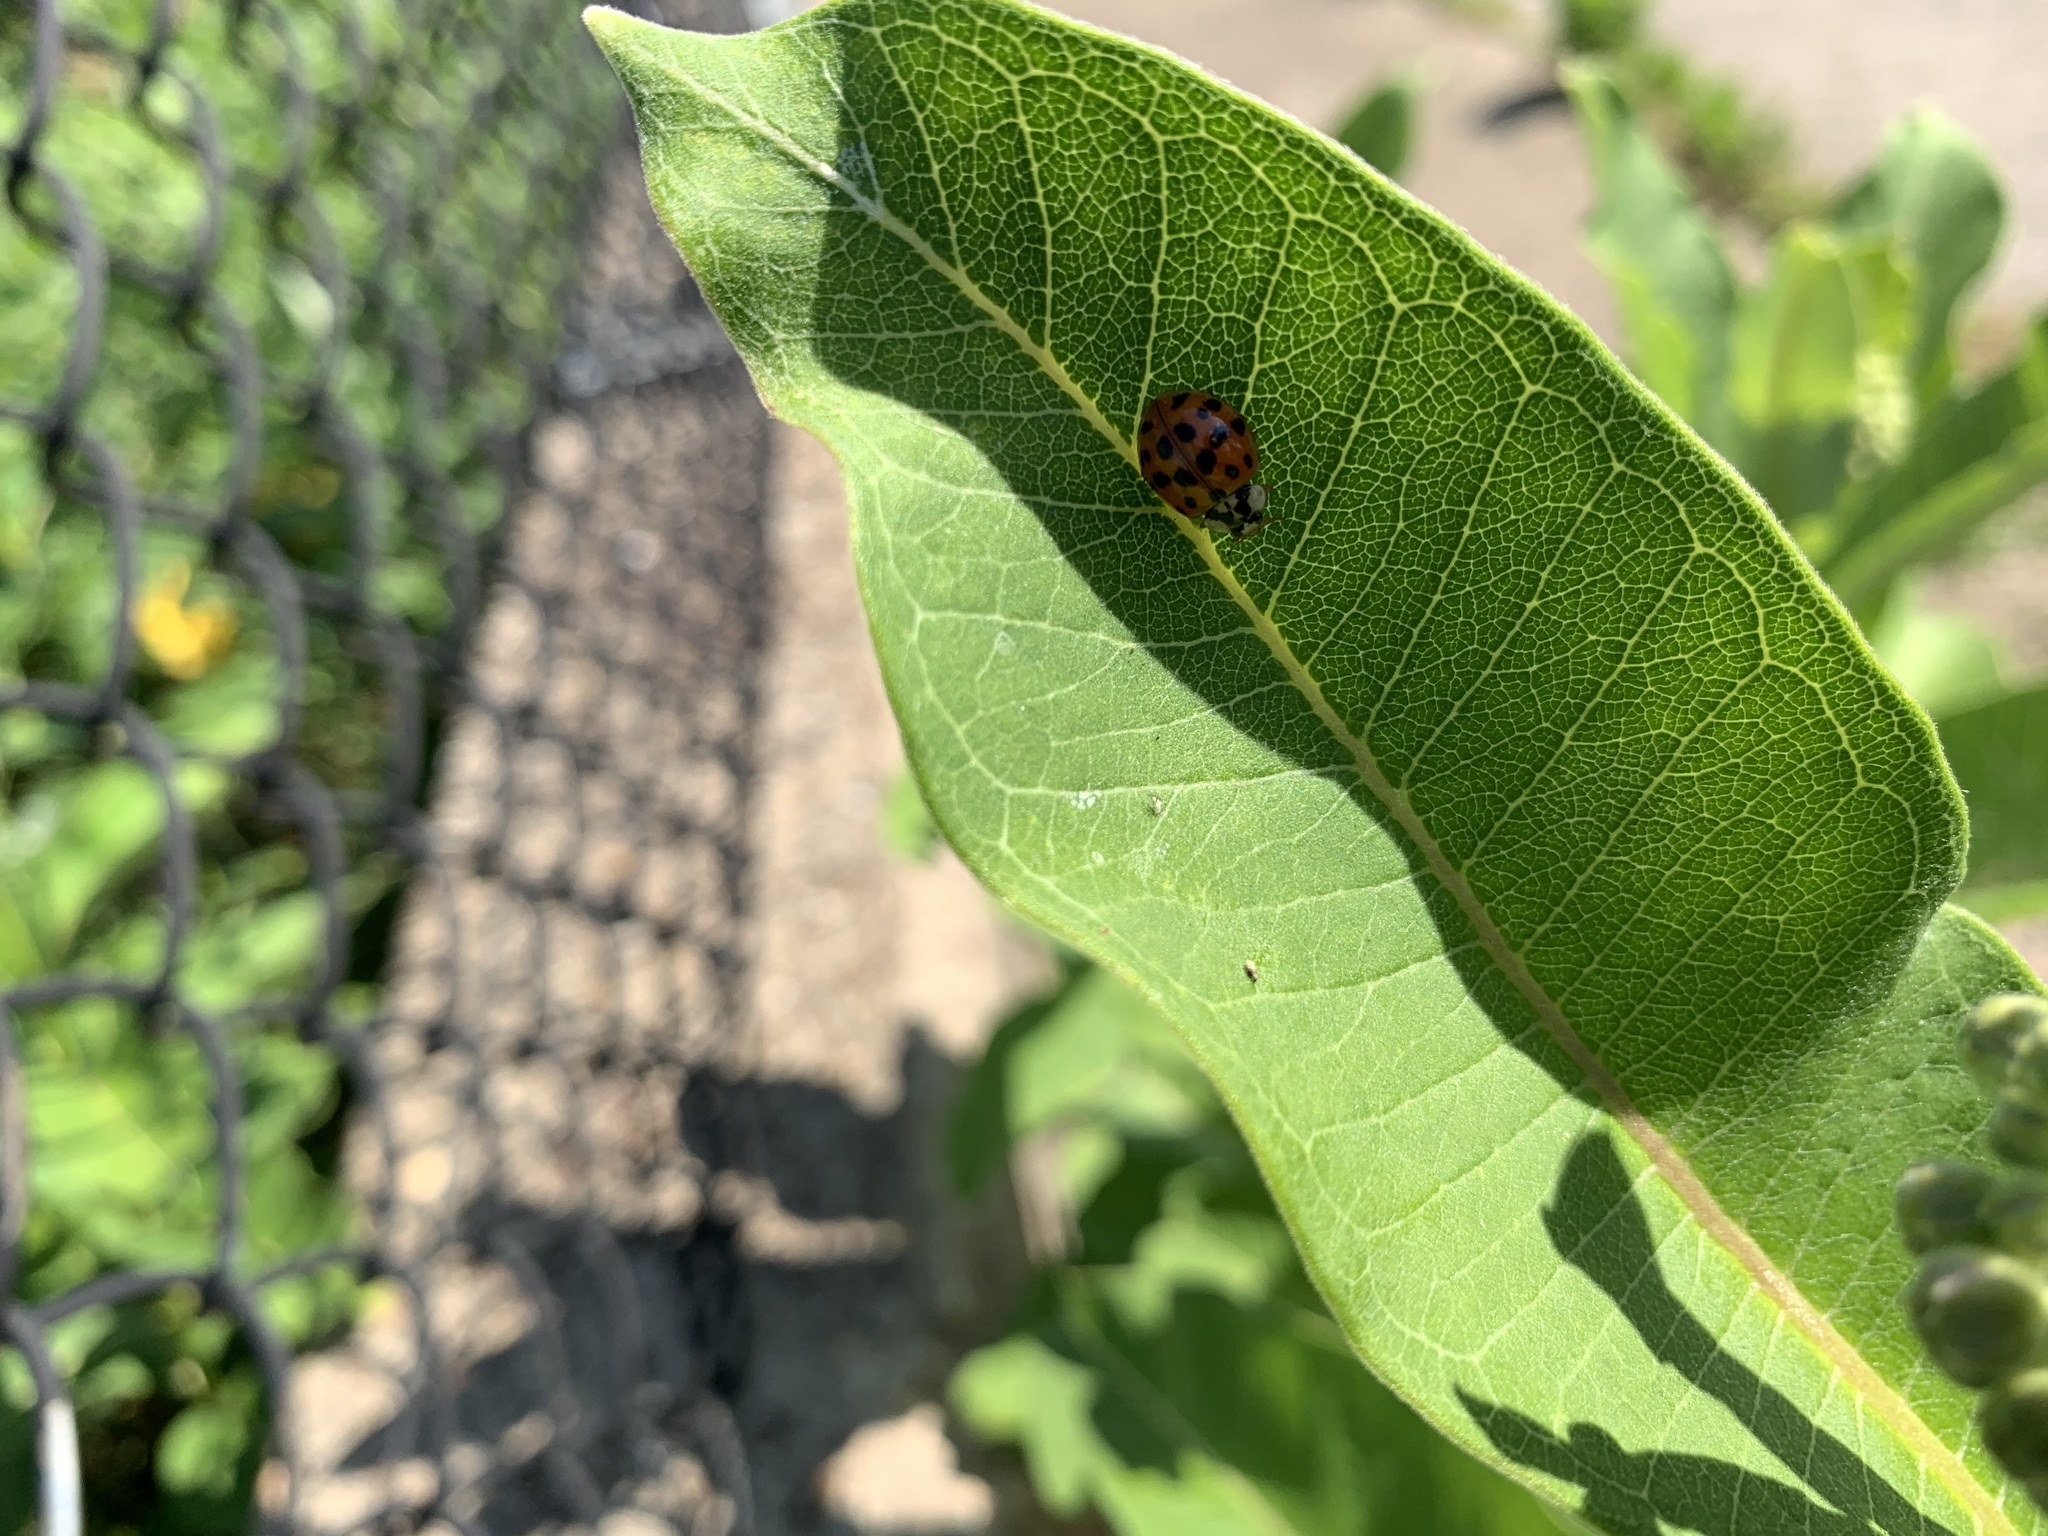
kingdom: Animalia
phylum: Arthropoda
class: Insecta
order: Coleoptera
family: Coccinellidae
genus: Harmonia
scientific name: Harmonia axyridis
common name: Harlequin ladybird
